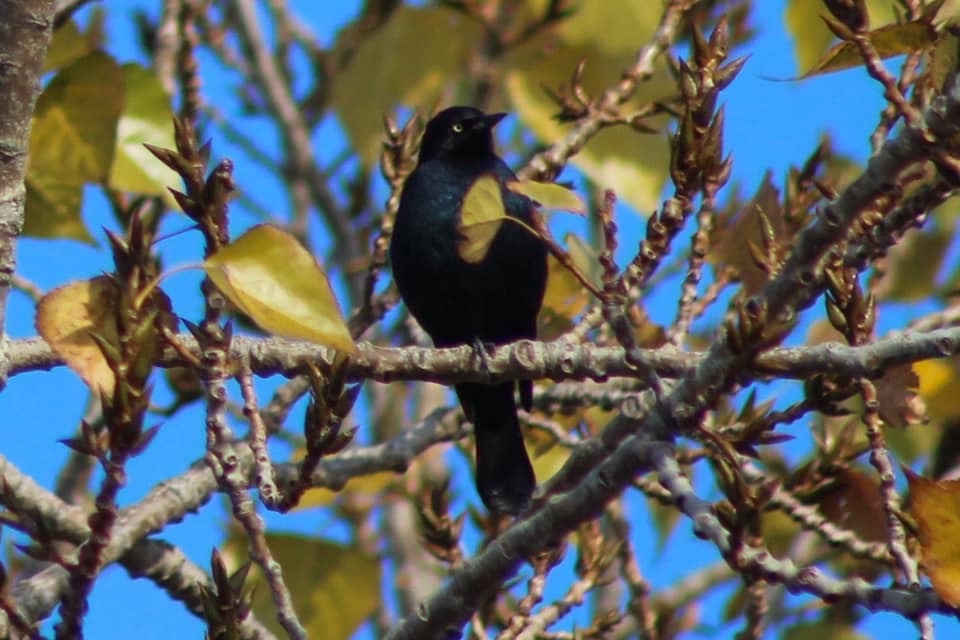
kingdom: Animalia
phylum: Chordata
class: Aves
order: Passeriformes
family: Icteridae
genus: Euphagus
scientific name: Euphagus cyanocephalus
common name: Brewer's blackbird
